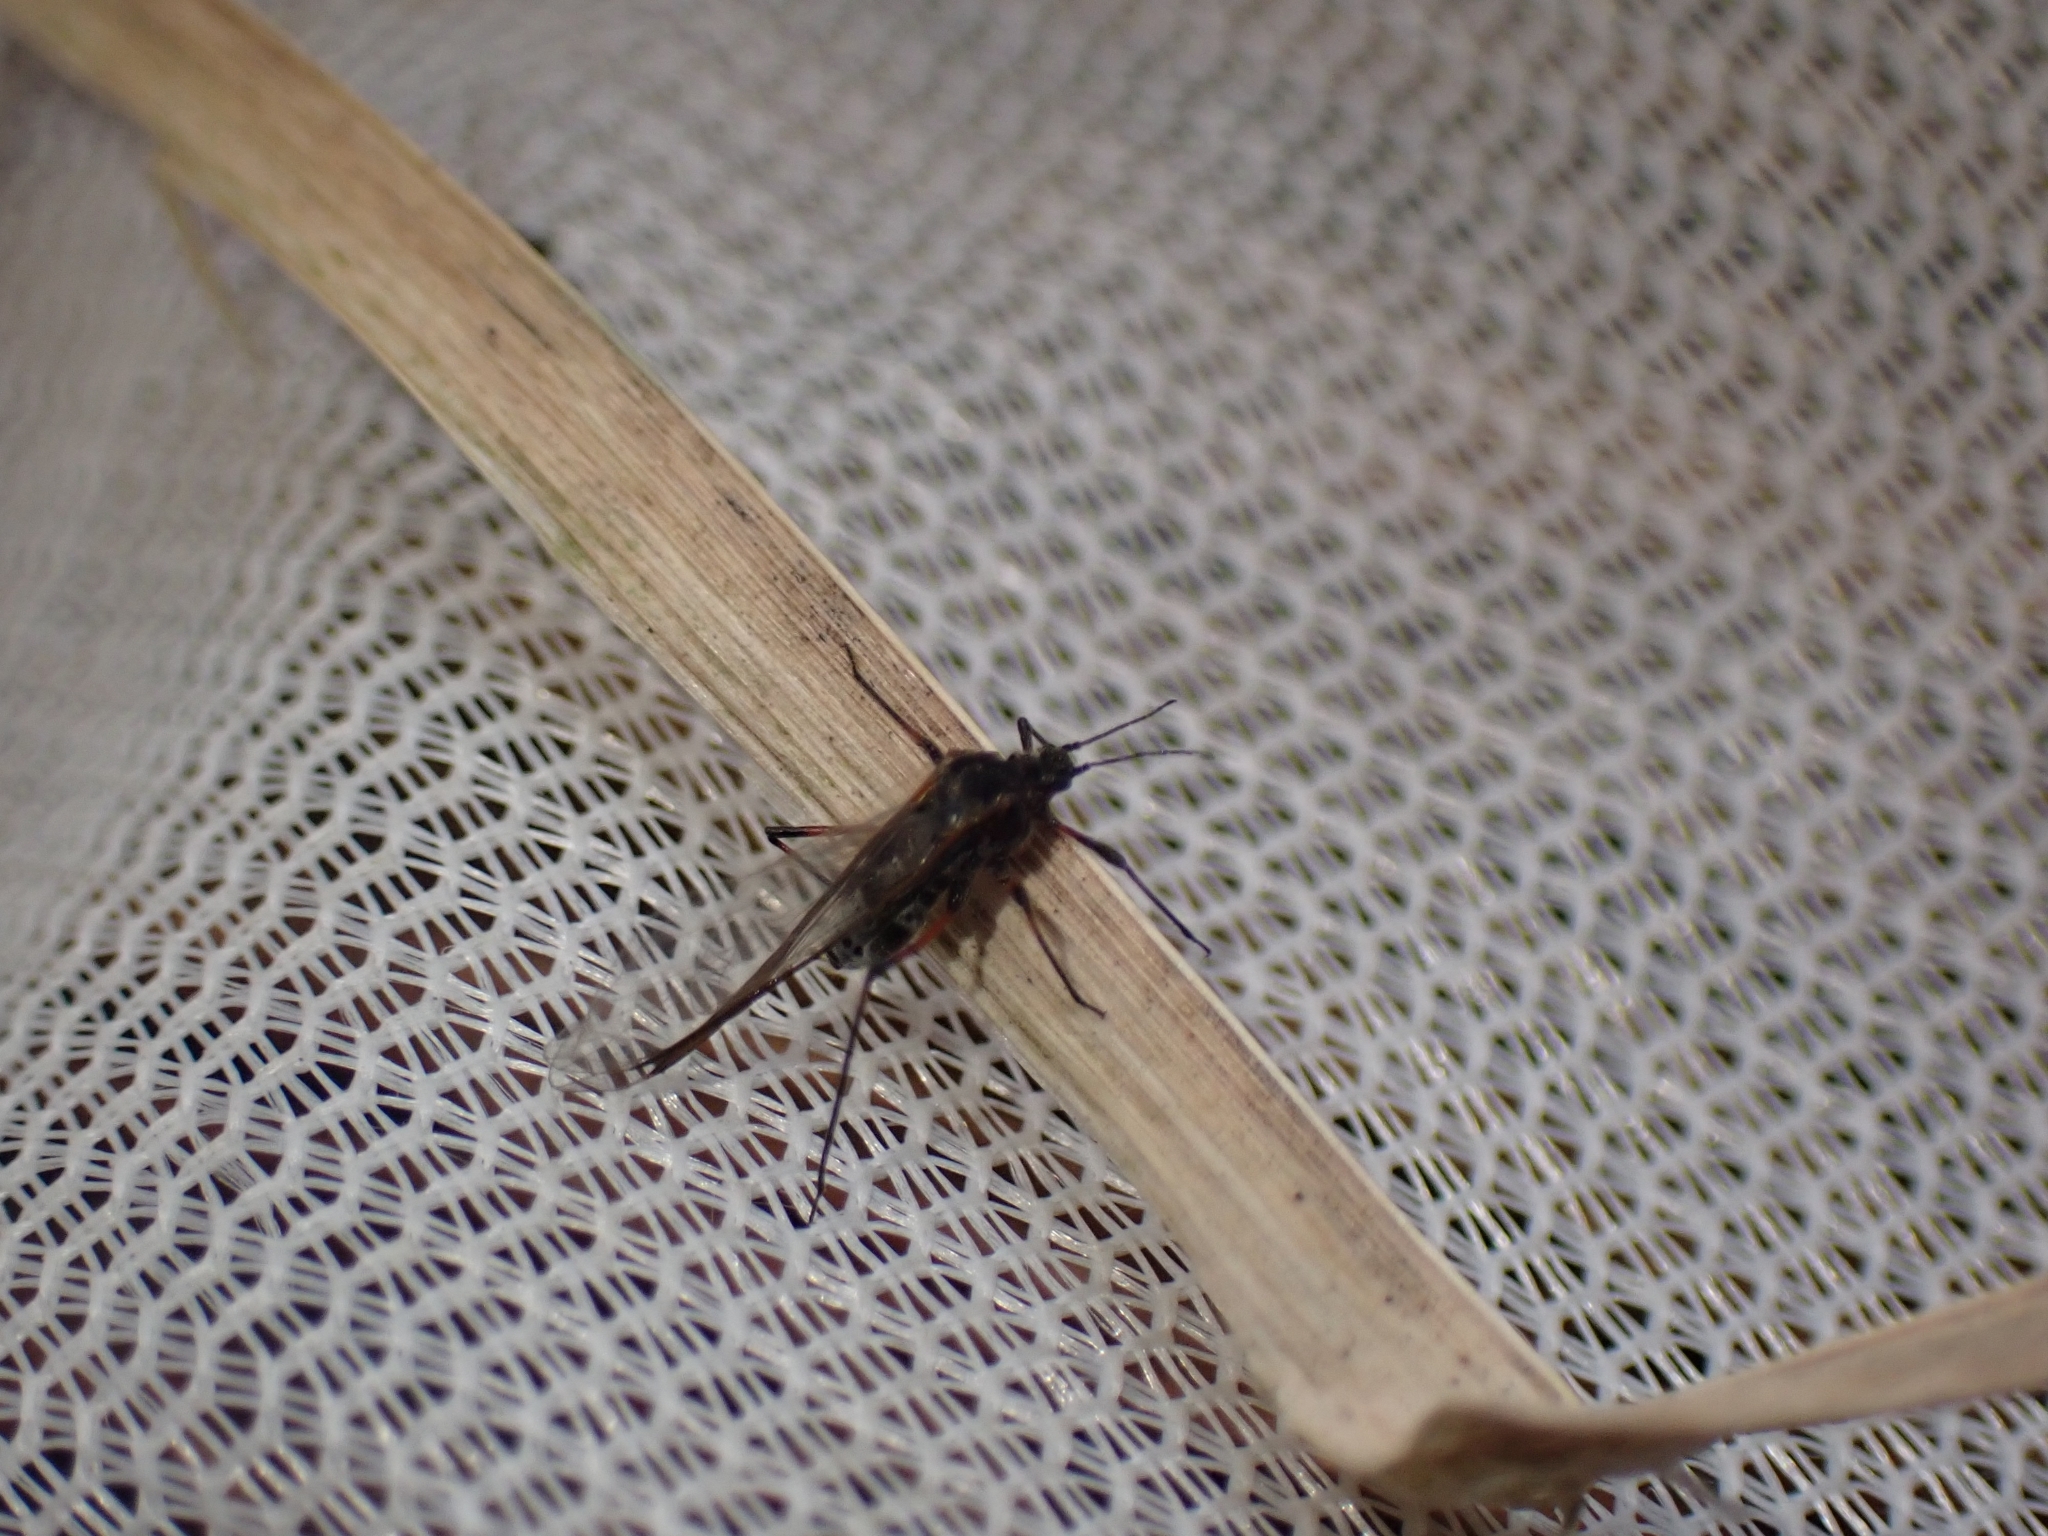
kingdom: Animalia
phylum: Arthropoda
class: Insecta
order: Hemiptera
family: Aphididae
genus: Tuberolachnus
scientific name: Tuberolachnus salignus
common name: Giant willow aphid
